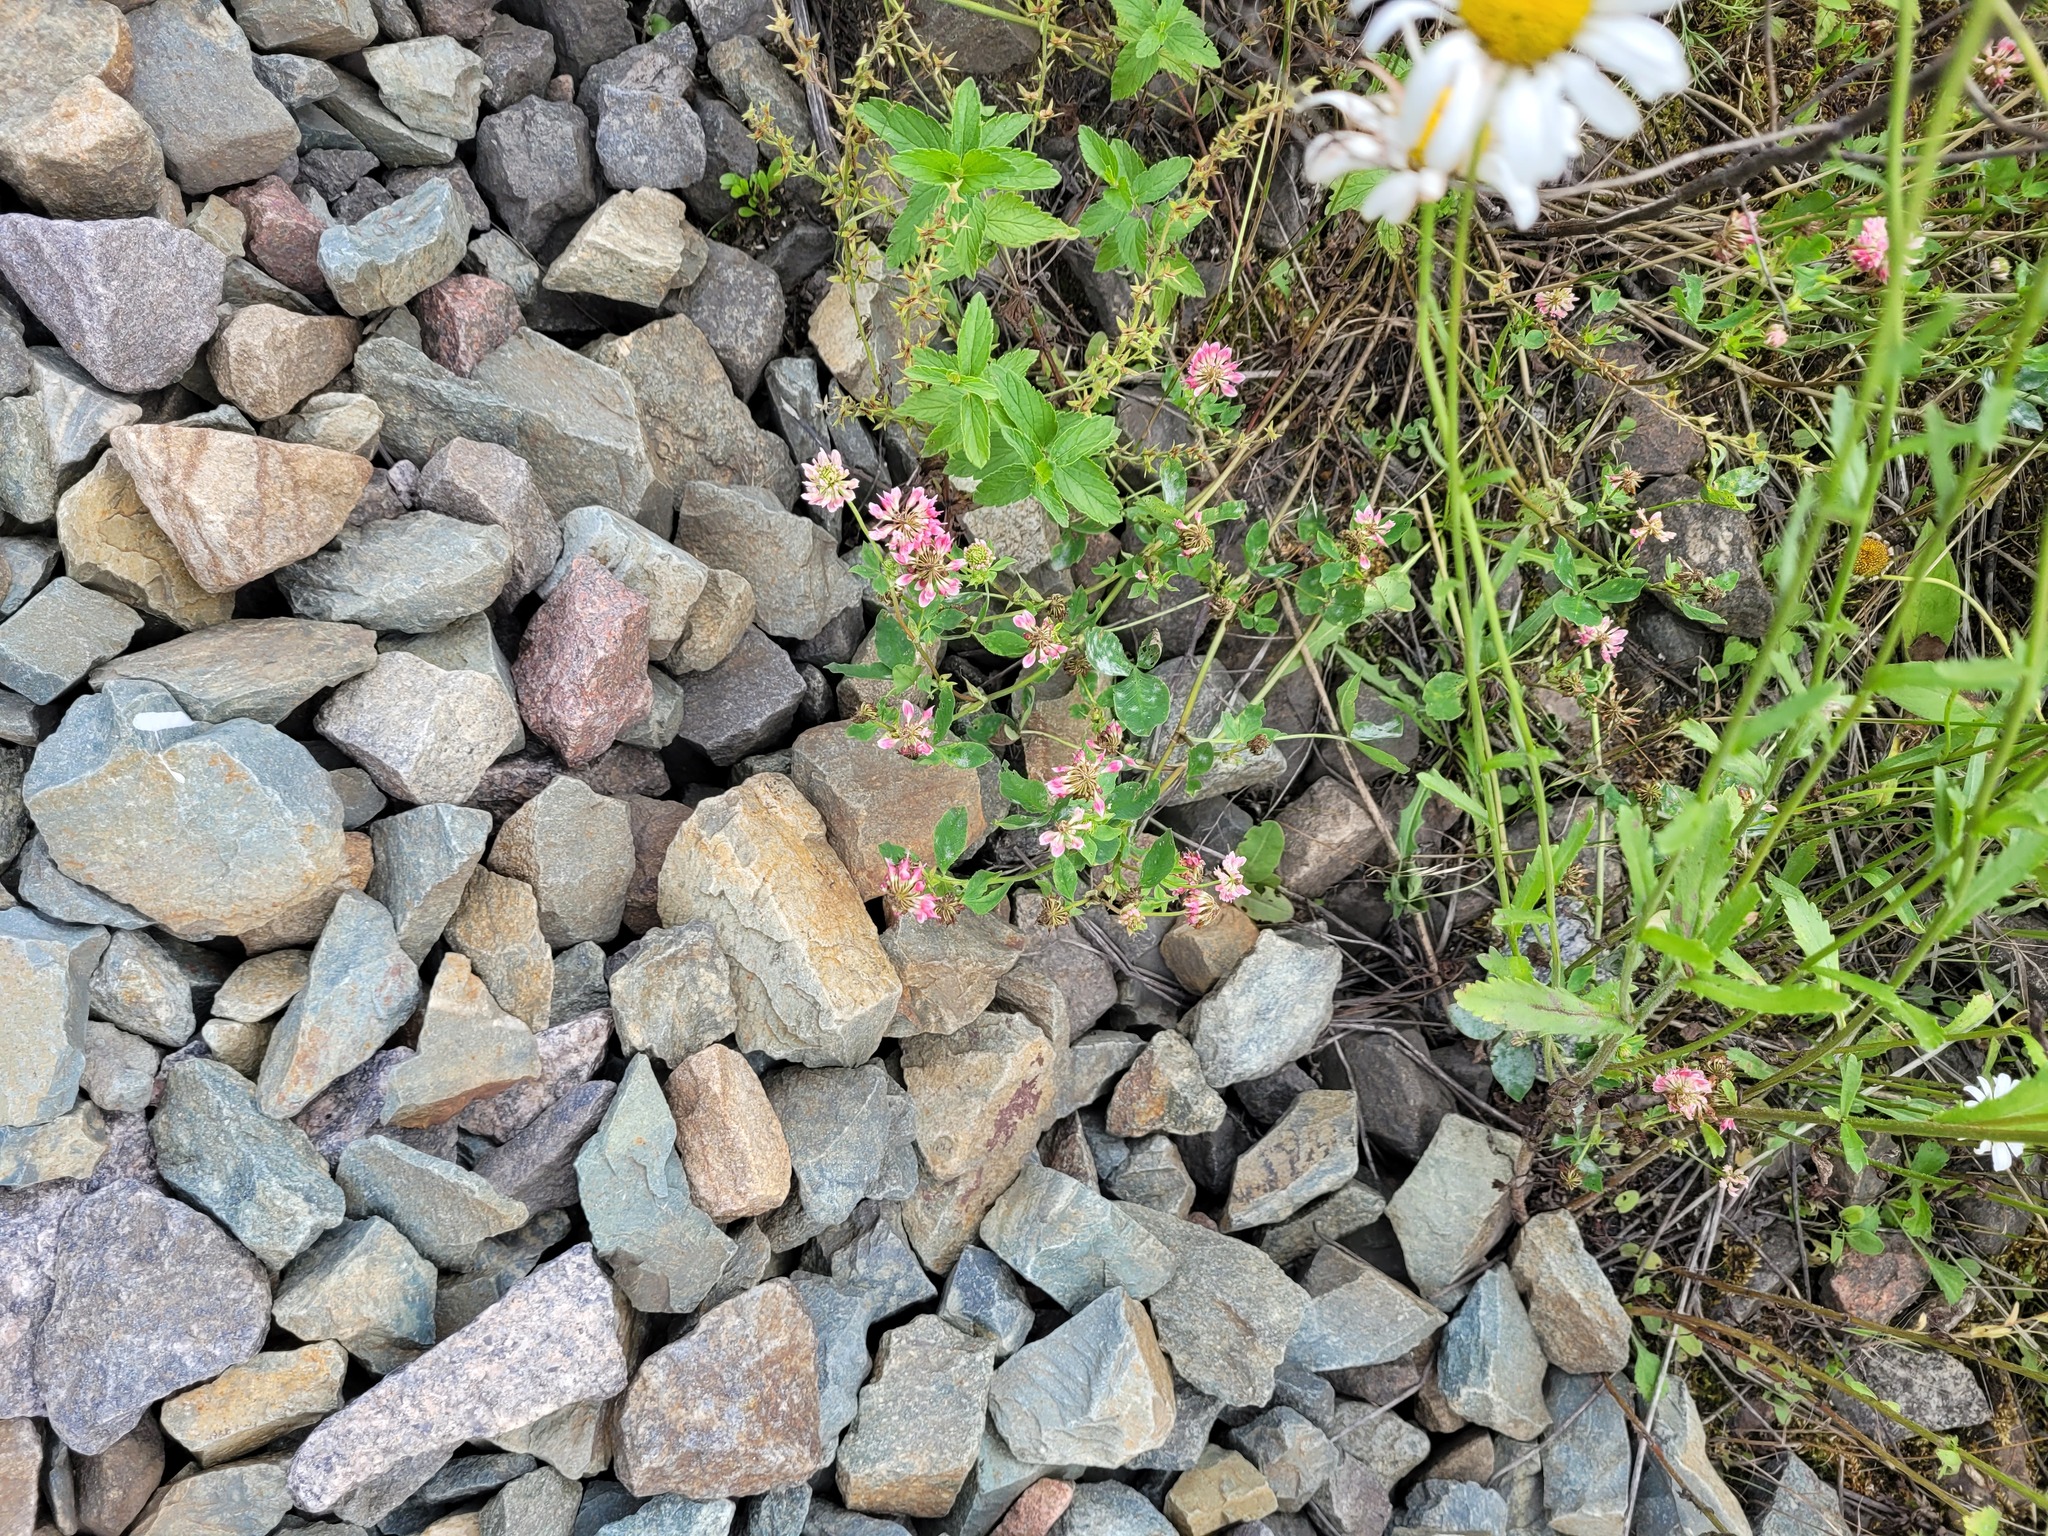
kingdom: Plantae
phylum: Tracheophyta
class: Magnoliopsida
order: Fabales
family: Fabaceae
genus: Trifolium
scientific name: Trifolium hybridum
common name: Alsike clover
